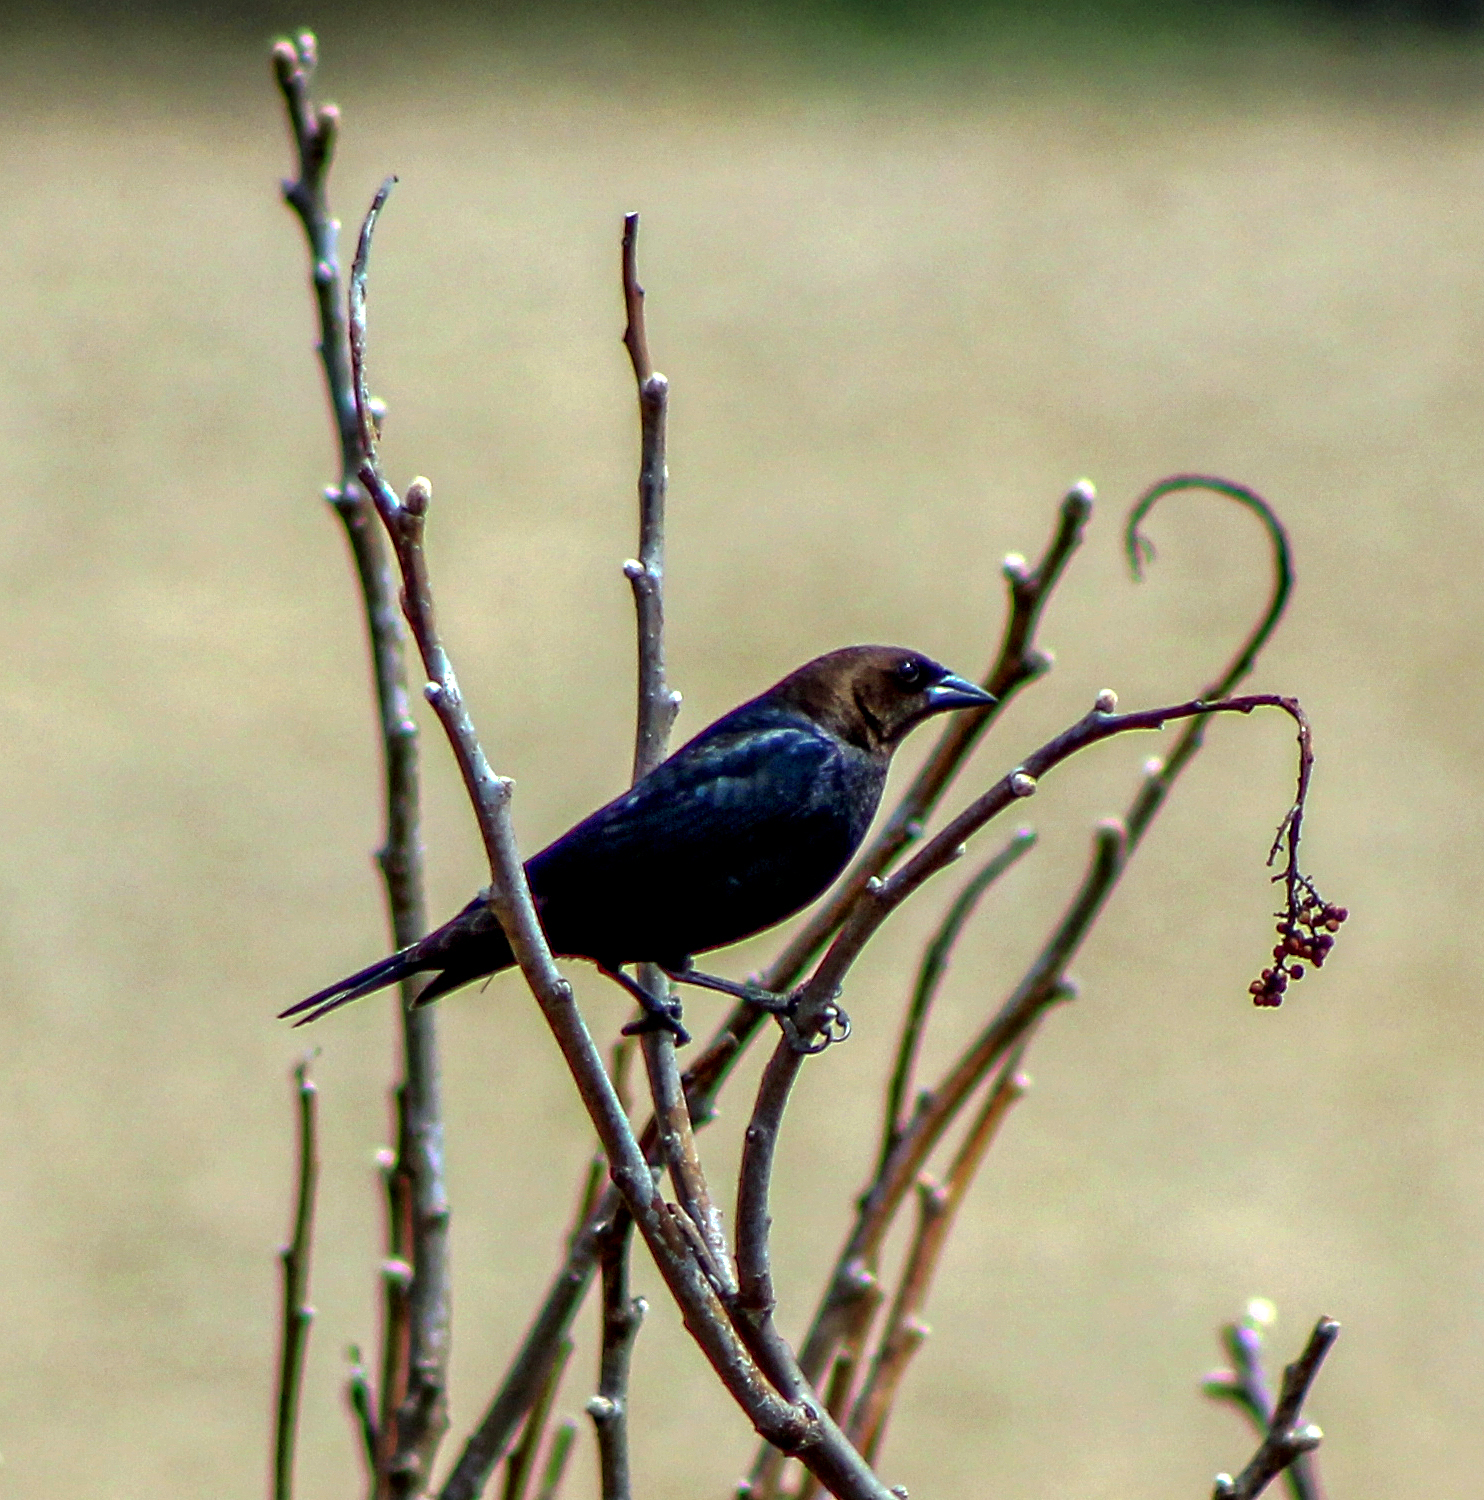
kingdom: Animalia
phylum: Chordata
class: Aves
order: Passeriformes
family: Icteridae
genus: Molothrus
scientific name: Molothrus ater
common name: Brown-headed cowbird
